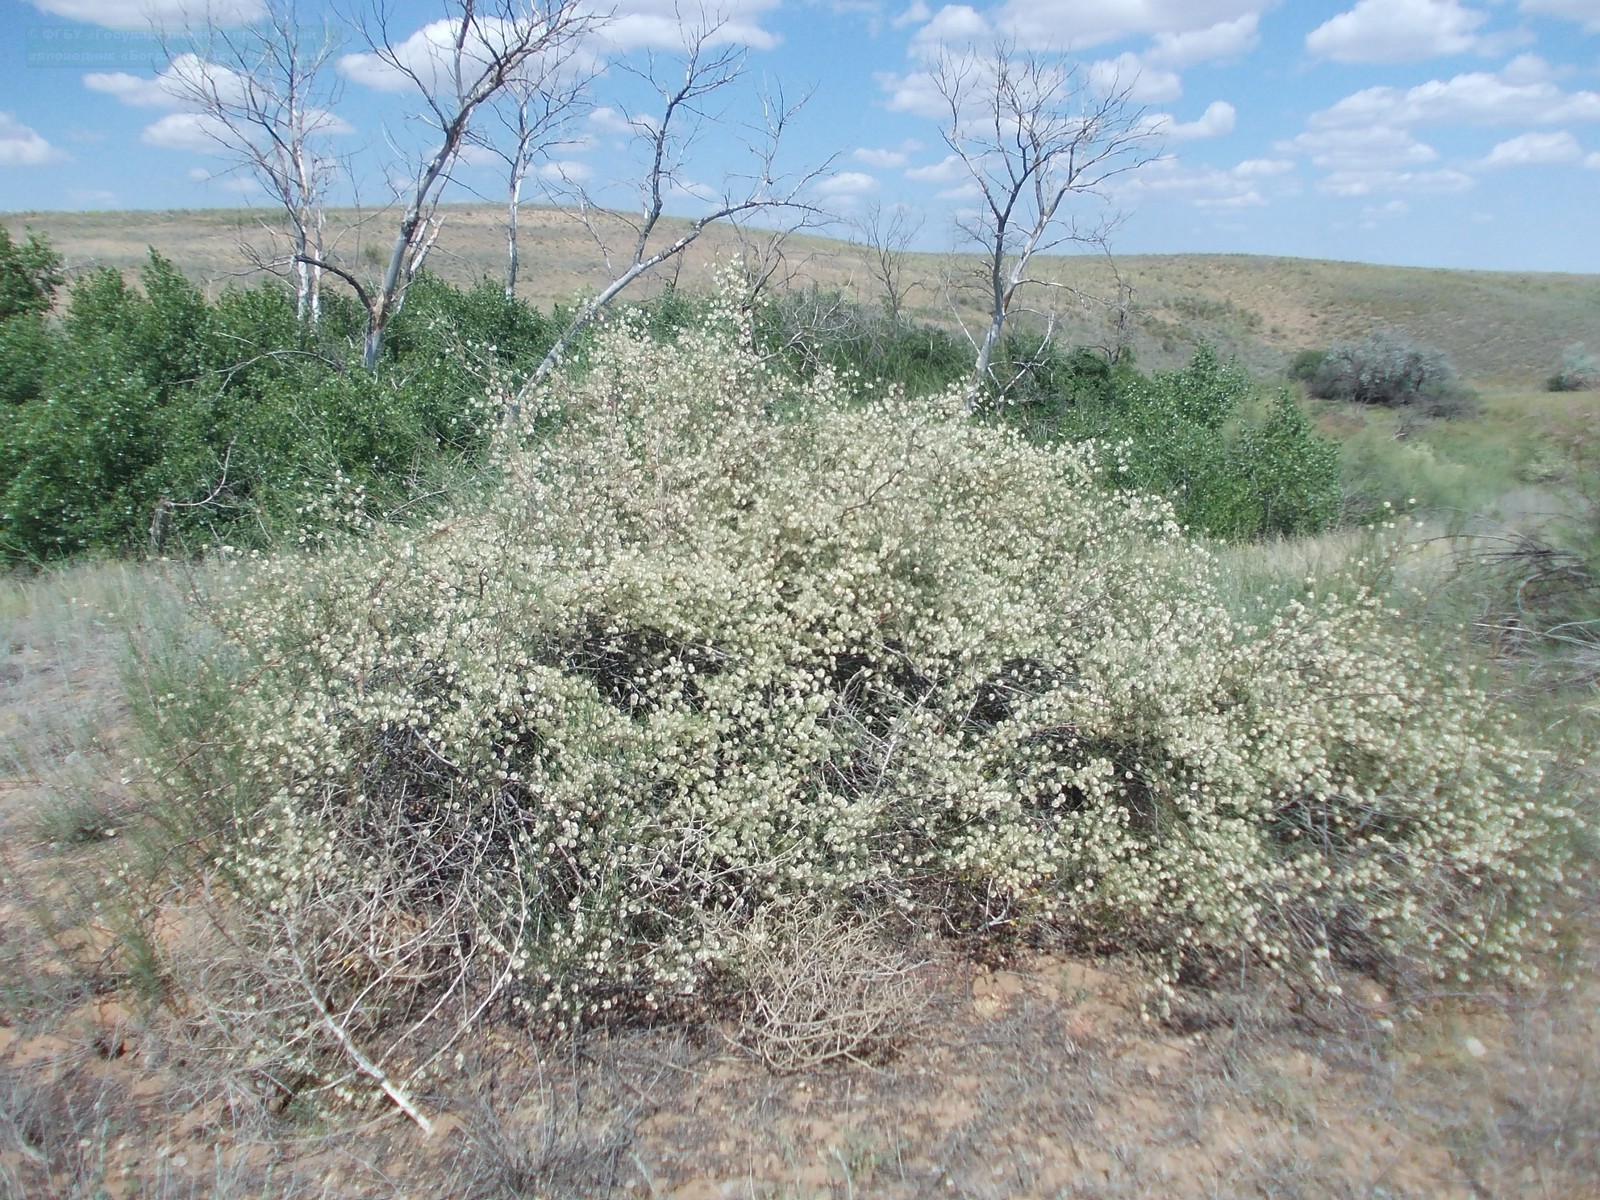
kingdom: Plantae
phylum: Tracheophyta
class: Magnoliopsida
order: Caryophyllales
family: Polygonaceae
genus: Calligonum
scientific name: Calligonum aphyllum
